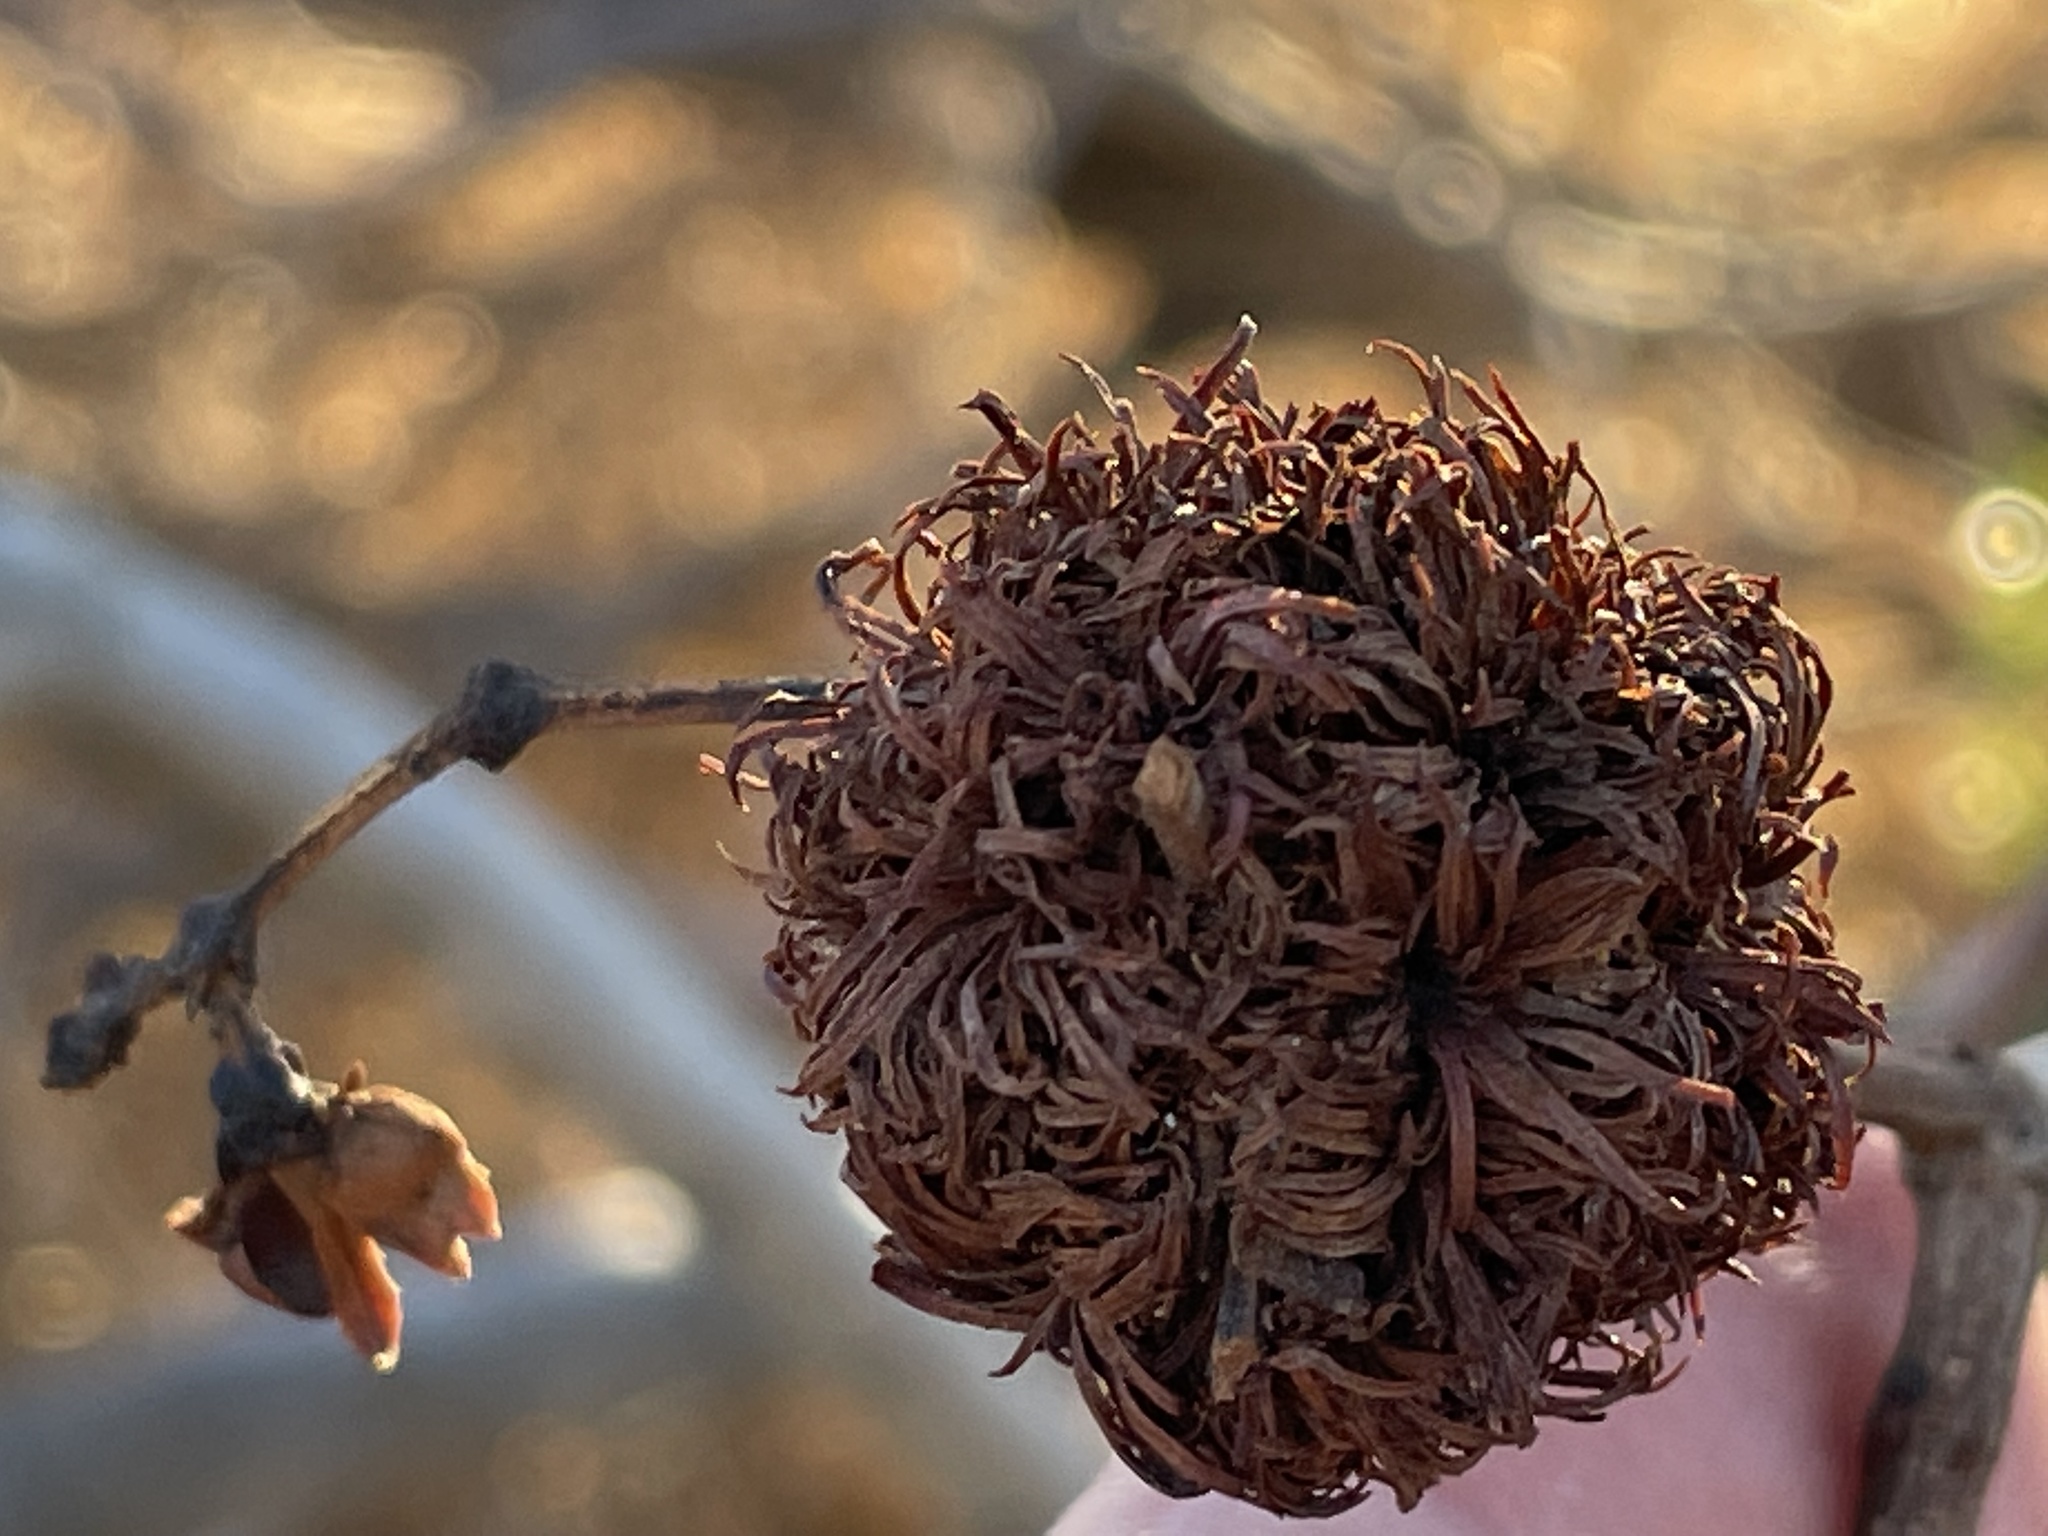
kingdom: Animalia
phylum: Arthropoda
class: Insecta
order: Diptera
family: Cecidomyiidae
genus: Asphondylia
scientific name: Asphondylia auripila
